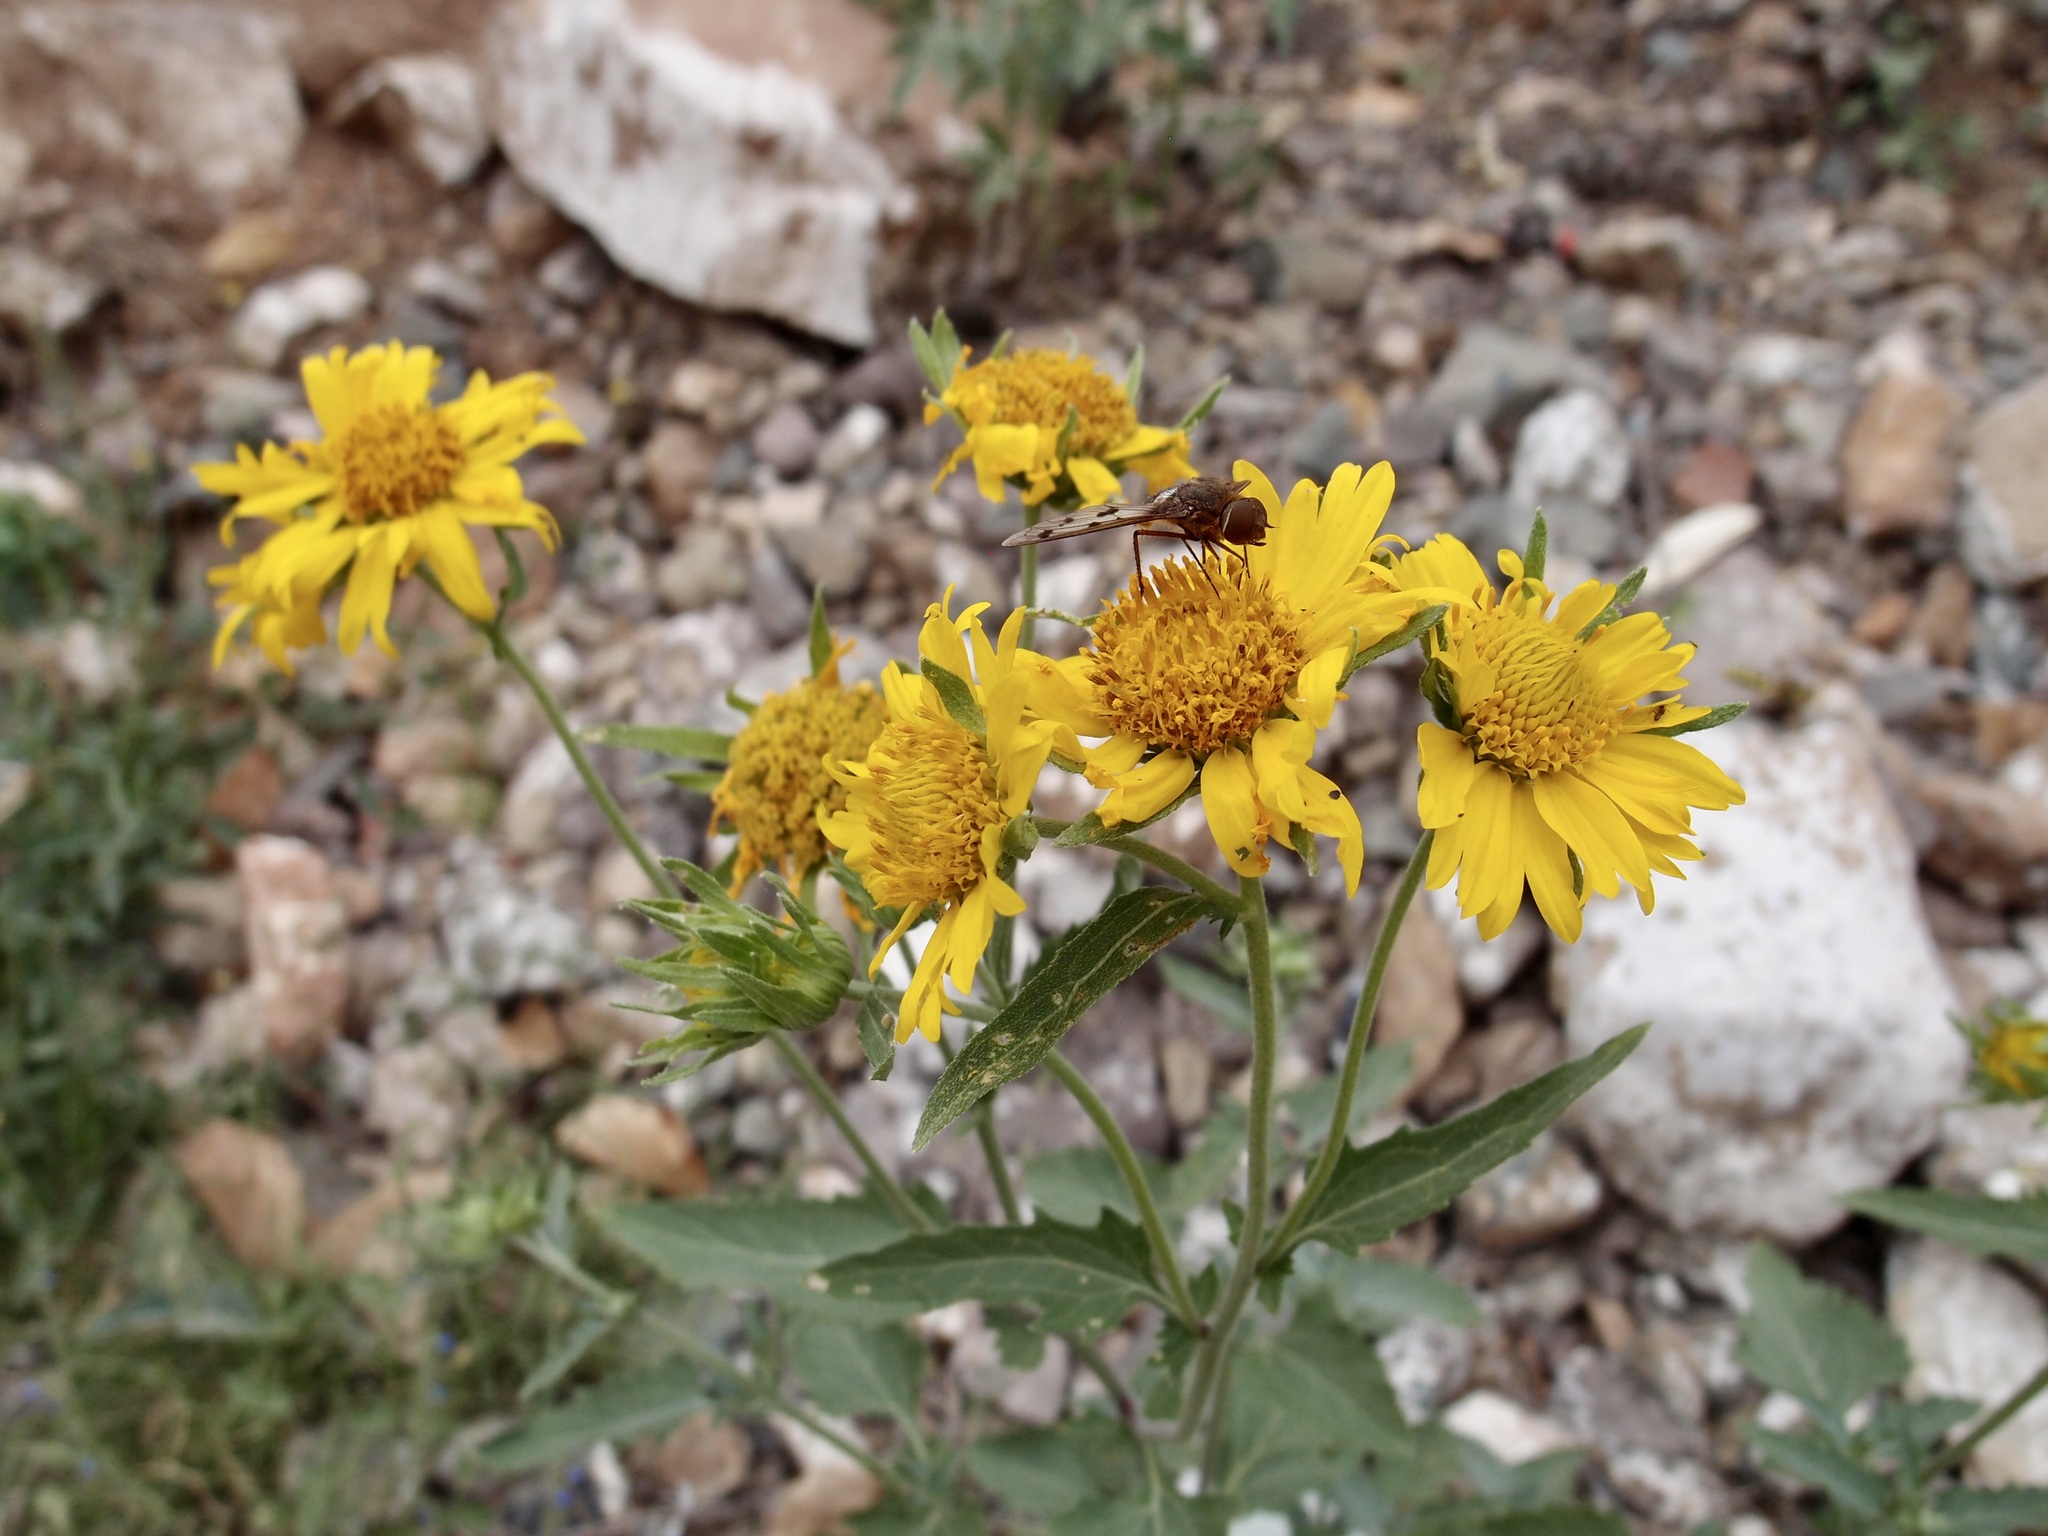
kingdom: Plantae
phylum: Tracheophyta
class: Magnoliopsida
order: Asterales
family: Asteraceae
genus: Verbesina
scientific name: Verbesina encelioides
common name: Golden crownbeard
